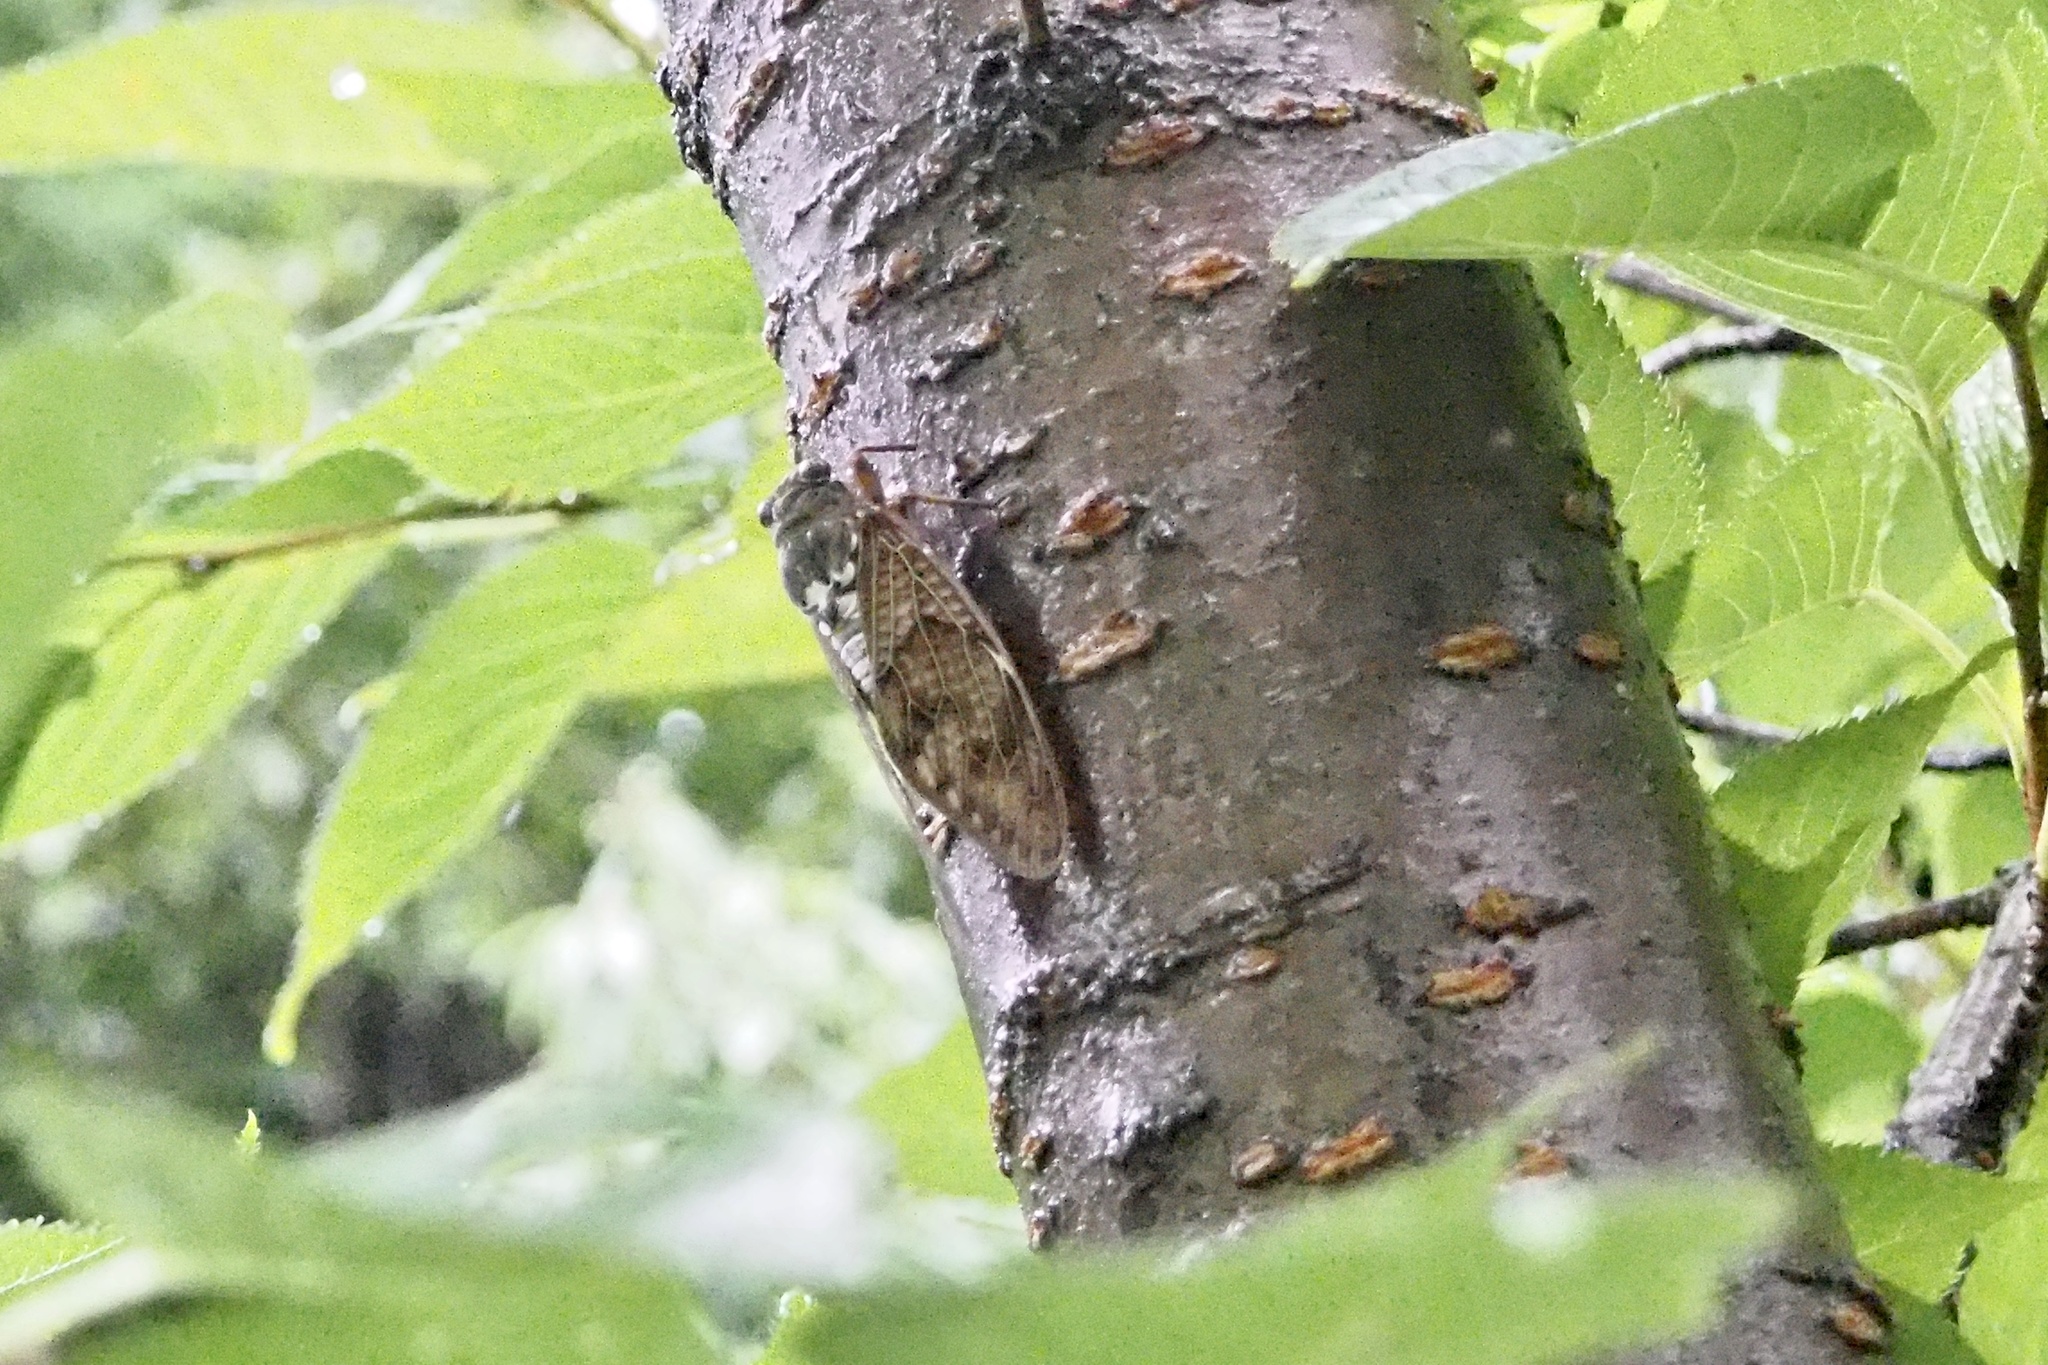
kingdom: Animalia
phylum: Arthropoda
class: Insecta
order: Hemiptera
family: Cicadidae
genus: Graptopsaltria
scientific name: Graptopsaltria nigrofuscata
